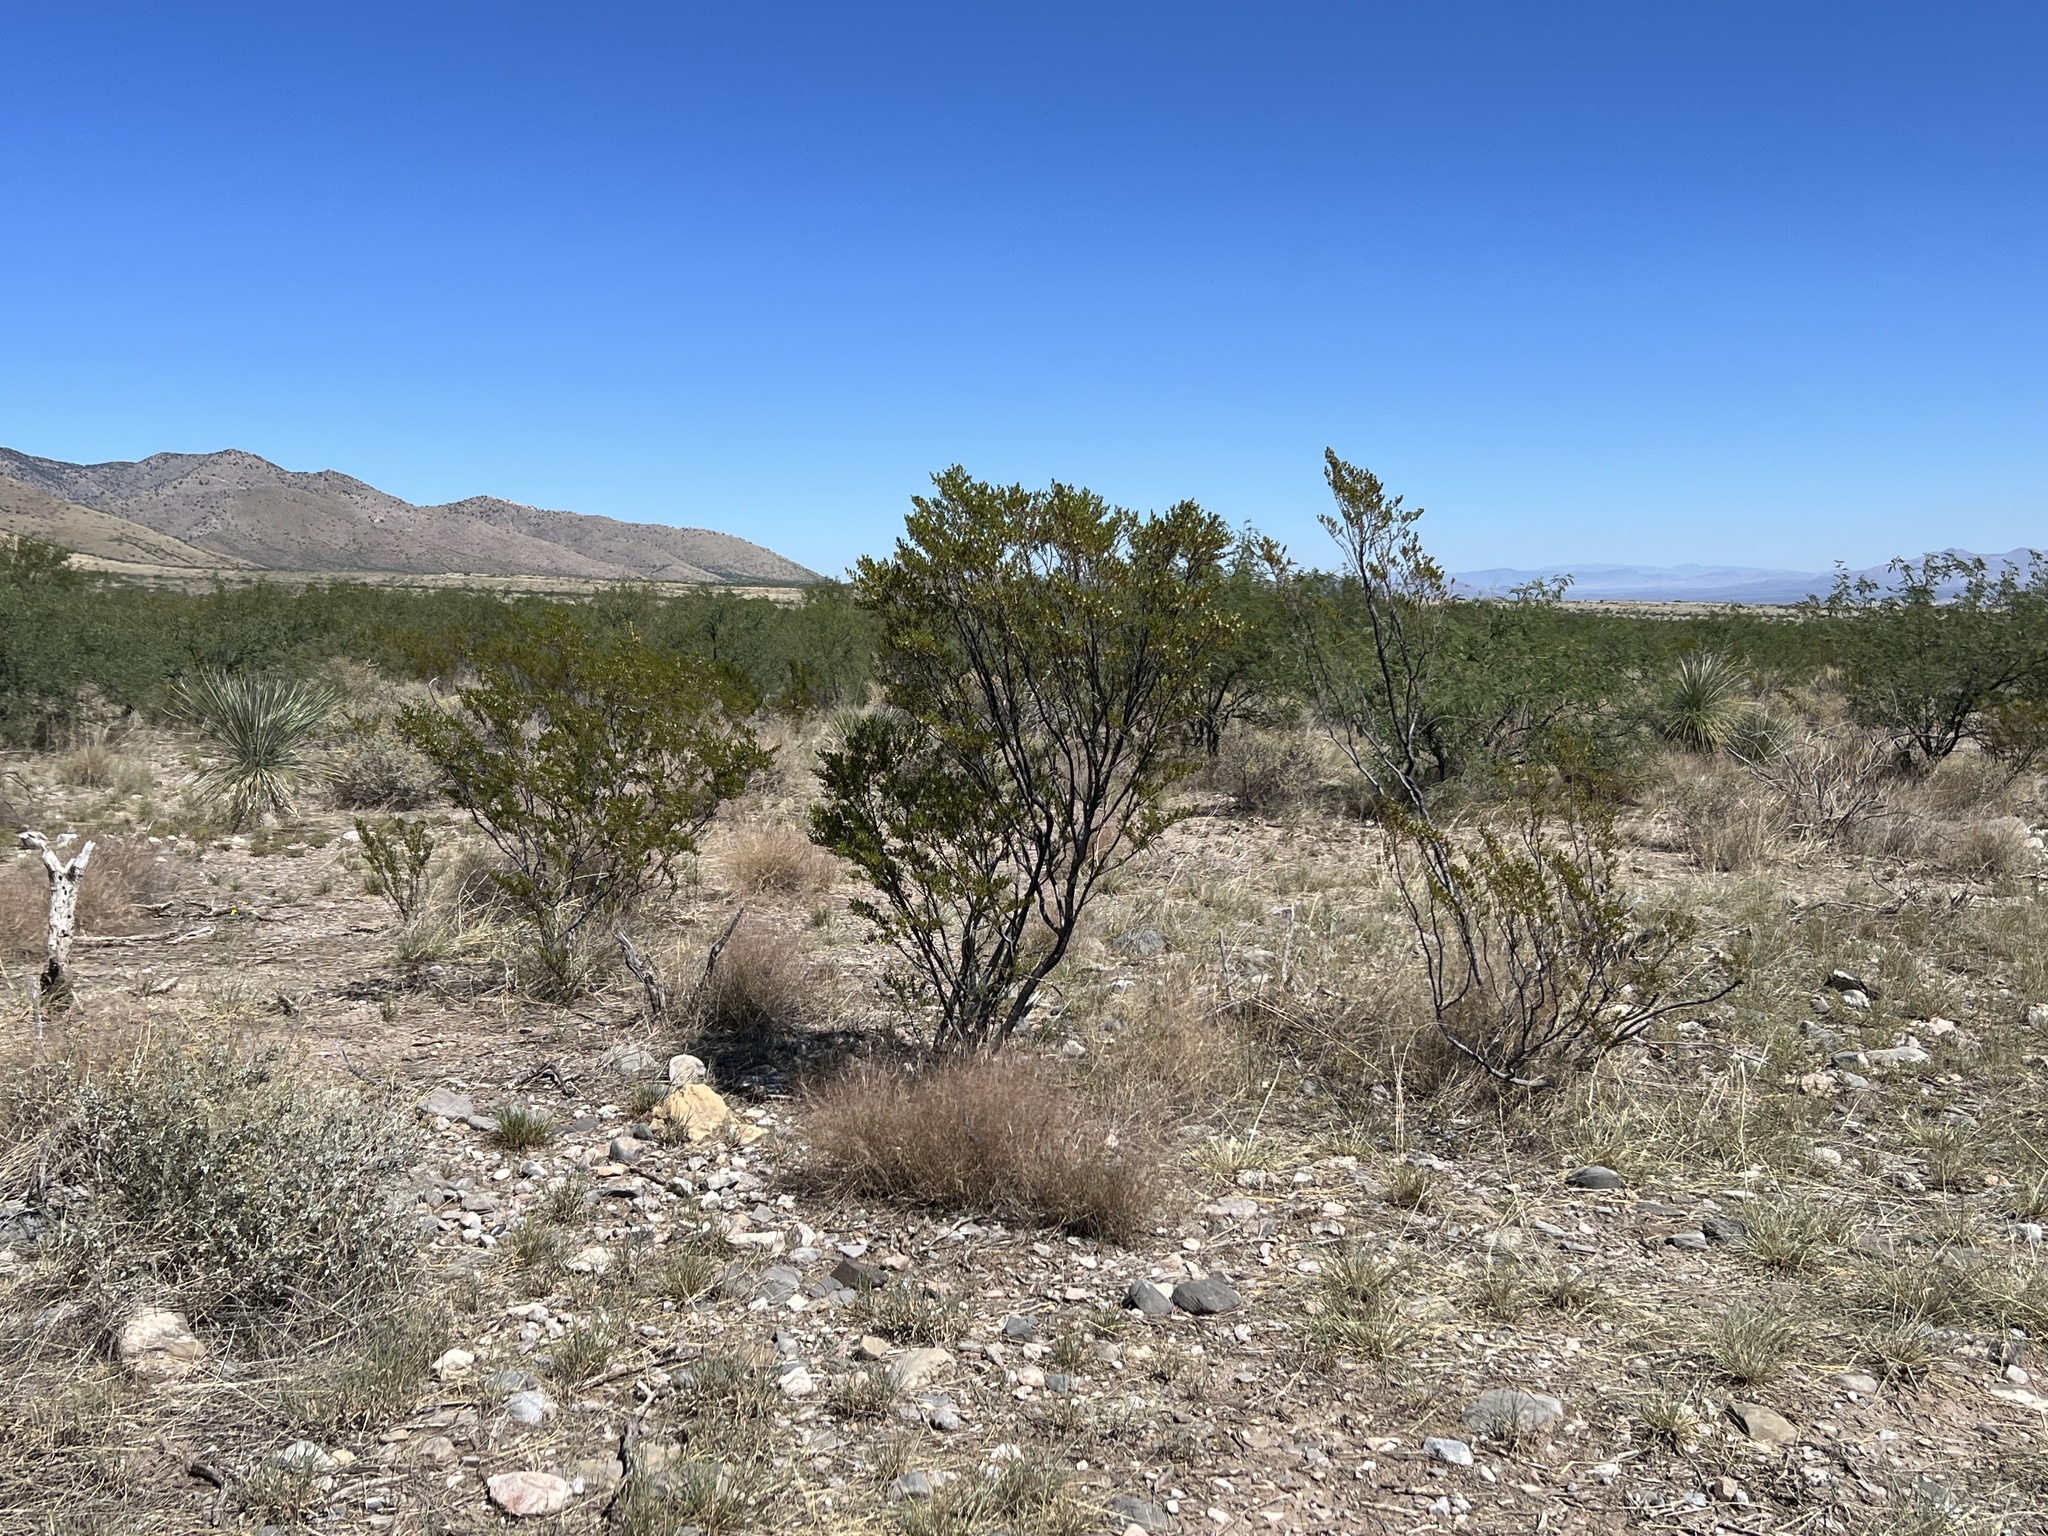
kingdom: Plantae
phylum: Tracheophyta
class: Magnoliopsida
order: Zygophyllales
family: Zygophyllaceae
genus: Larrea
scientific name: Larrea tridentata
